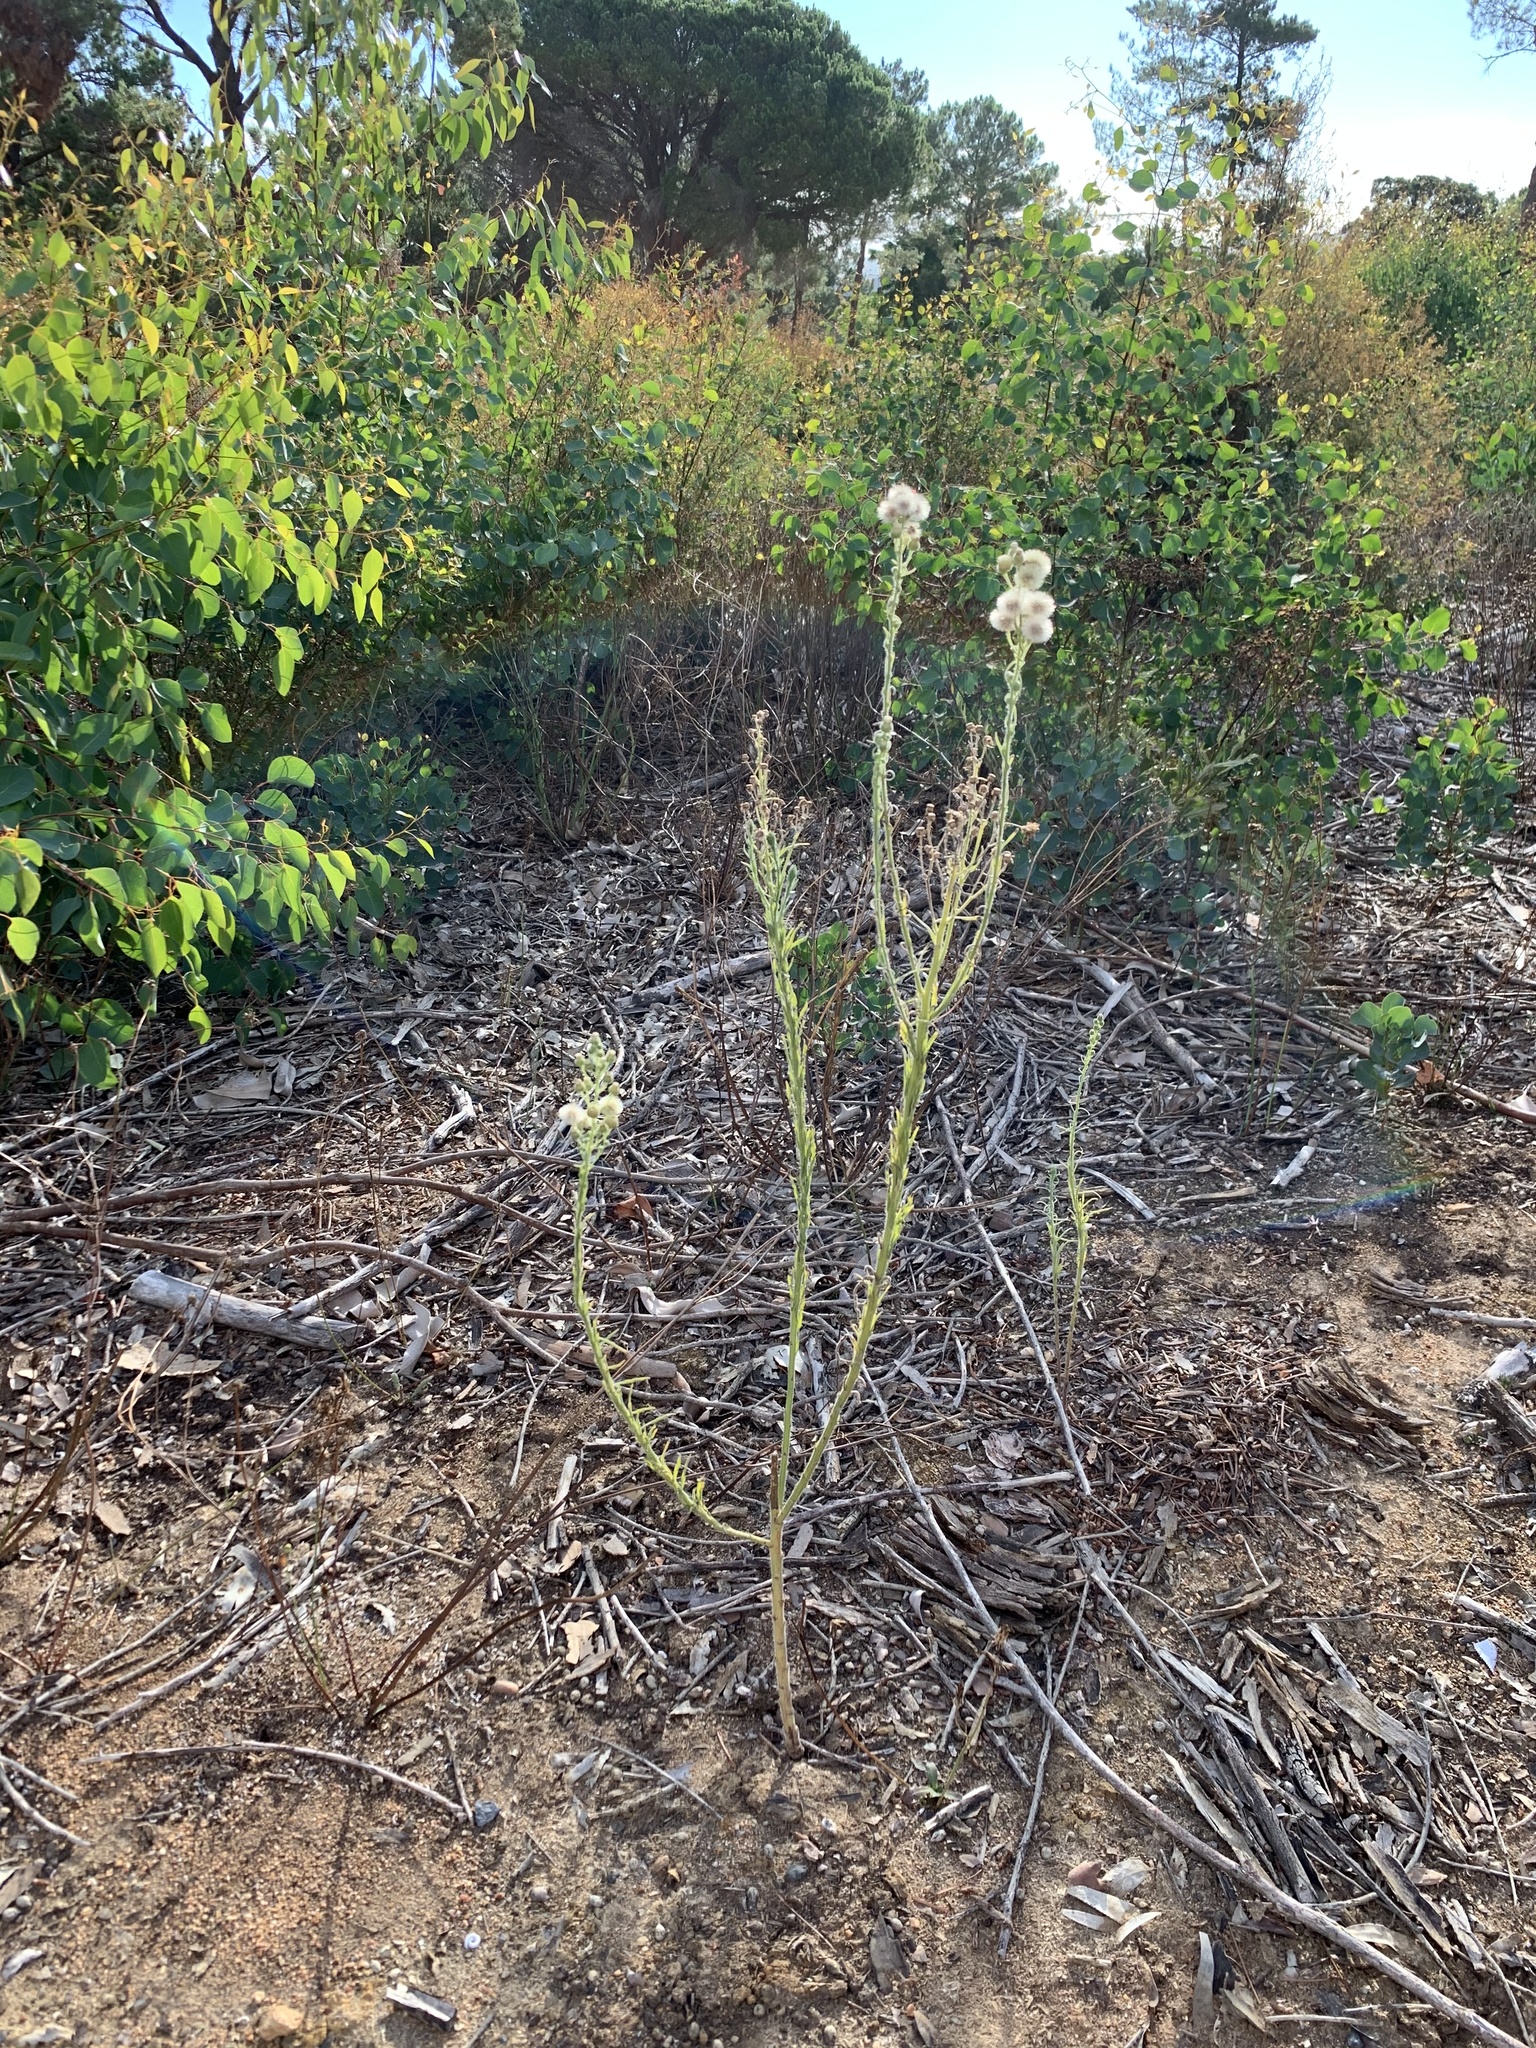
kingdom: Plantae
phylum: Tracheophyta
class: Magnoliopsida
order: Asterales
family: Asteraceae
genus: Erigeron
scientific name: Erigeron bonariensis
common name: Argentine fleabane
